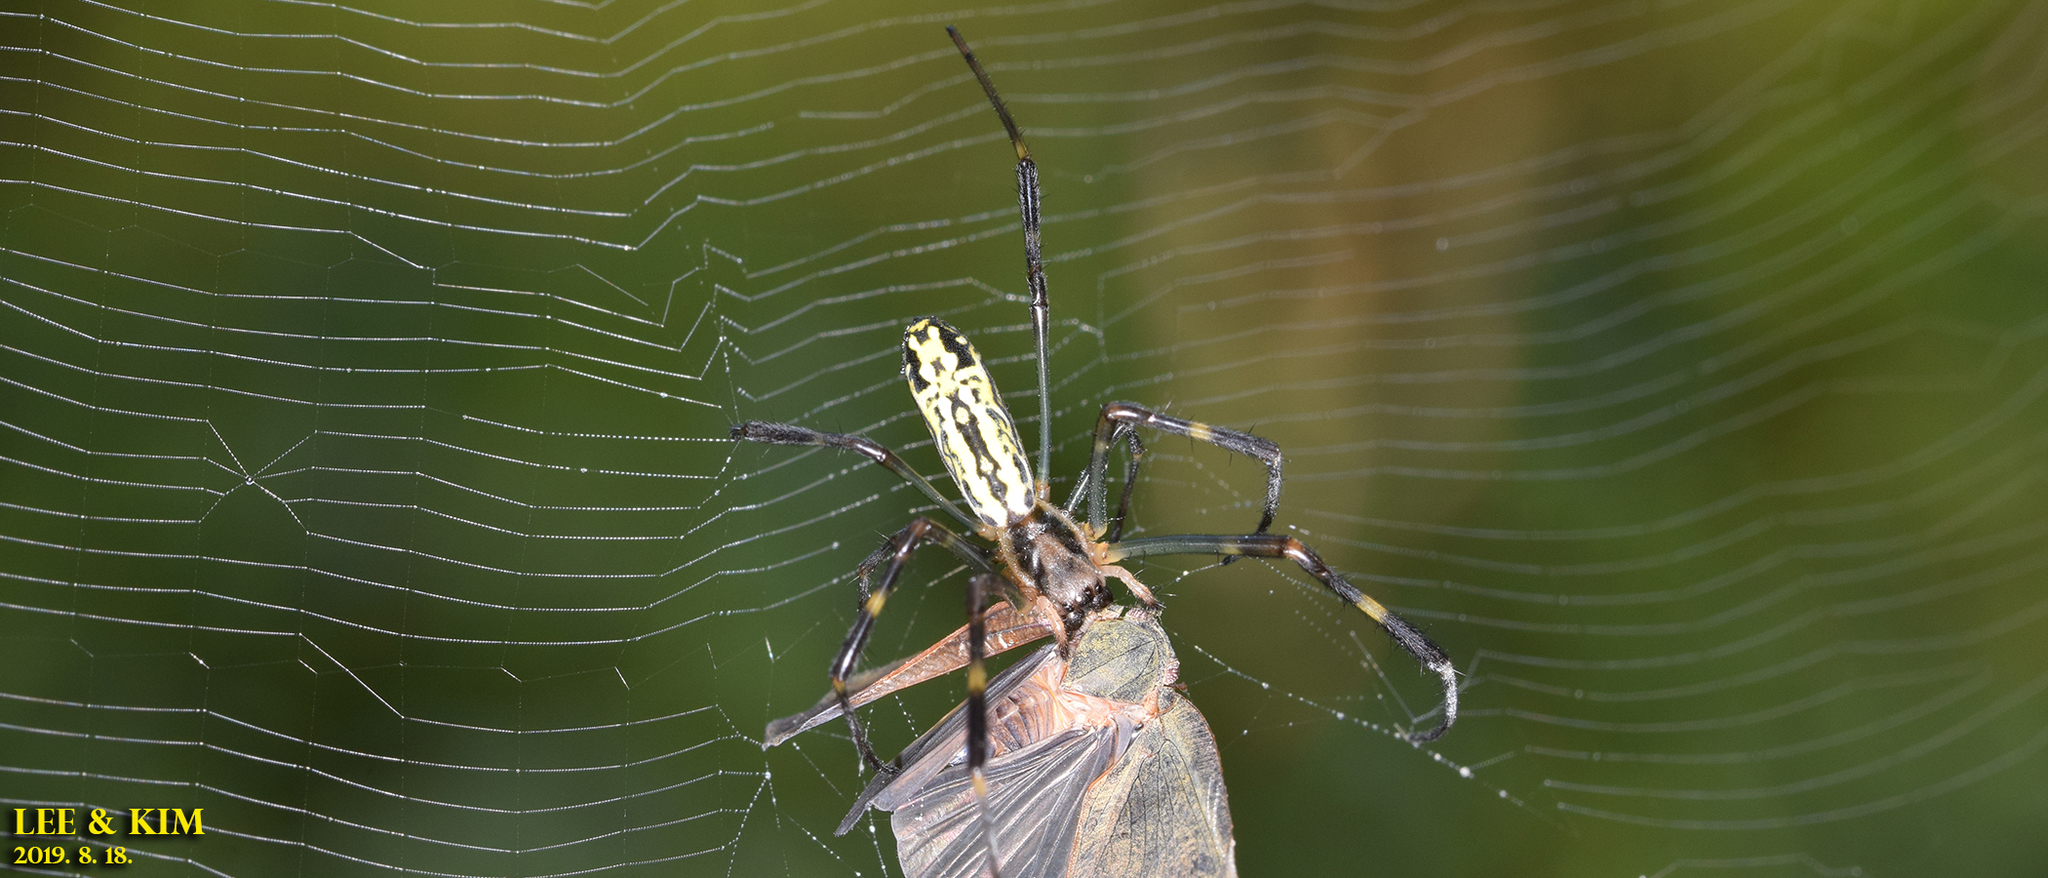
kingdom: Animalia
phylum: Arthropoda
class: Arachnida
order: Araneae
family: Araneidae
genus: Trichonephila
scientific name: Trichonephila clavata
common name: Jorō spider
